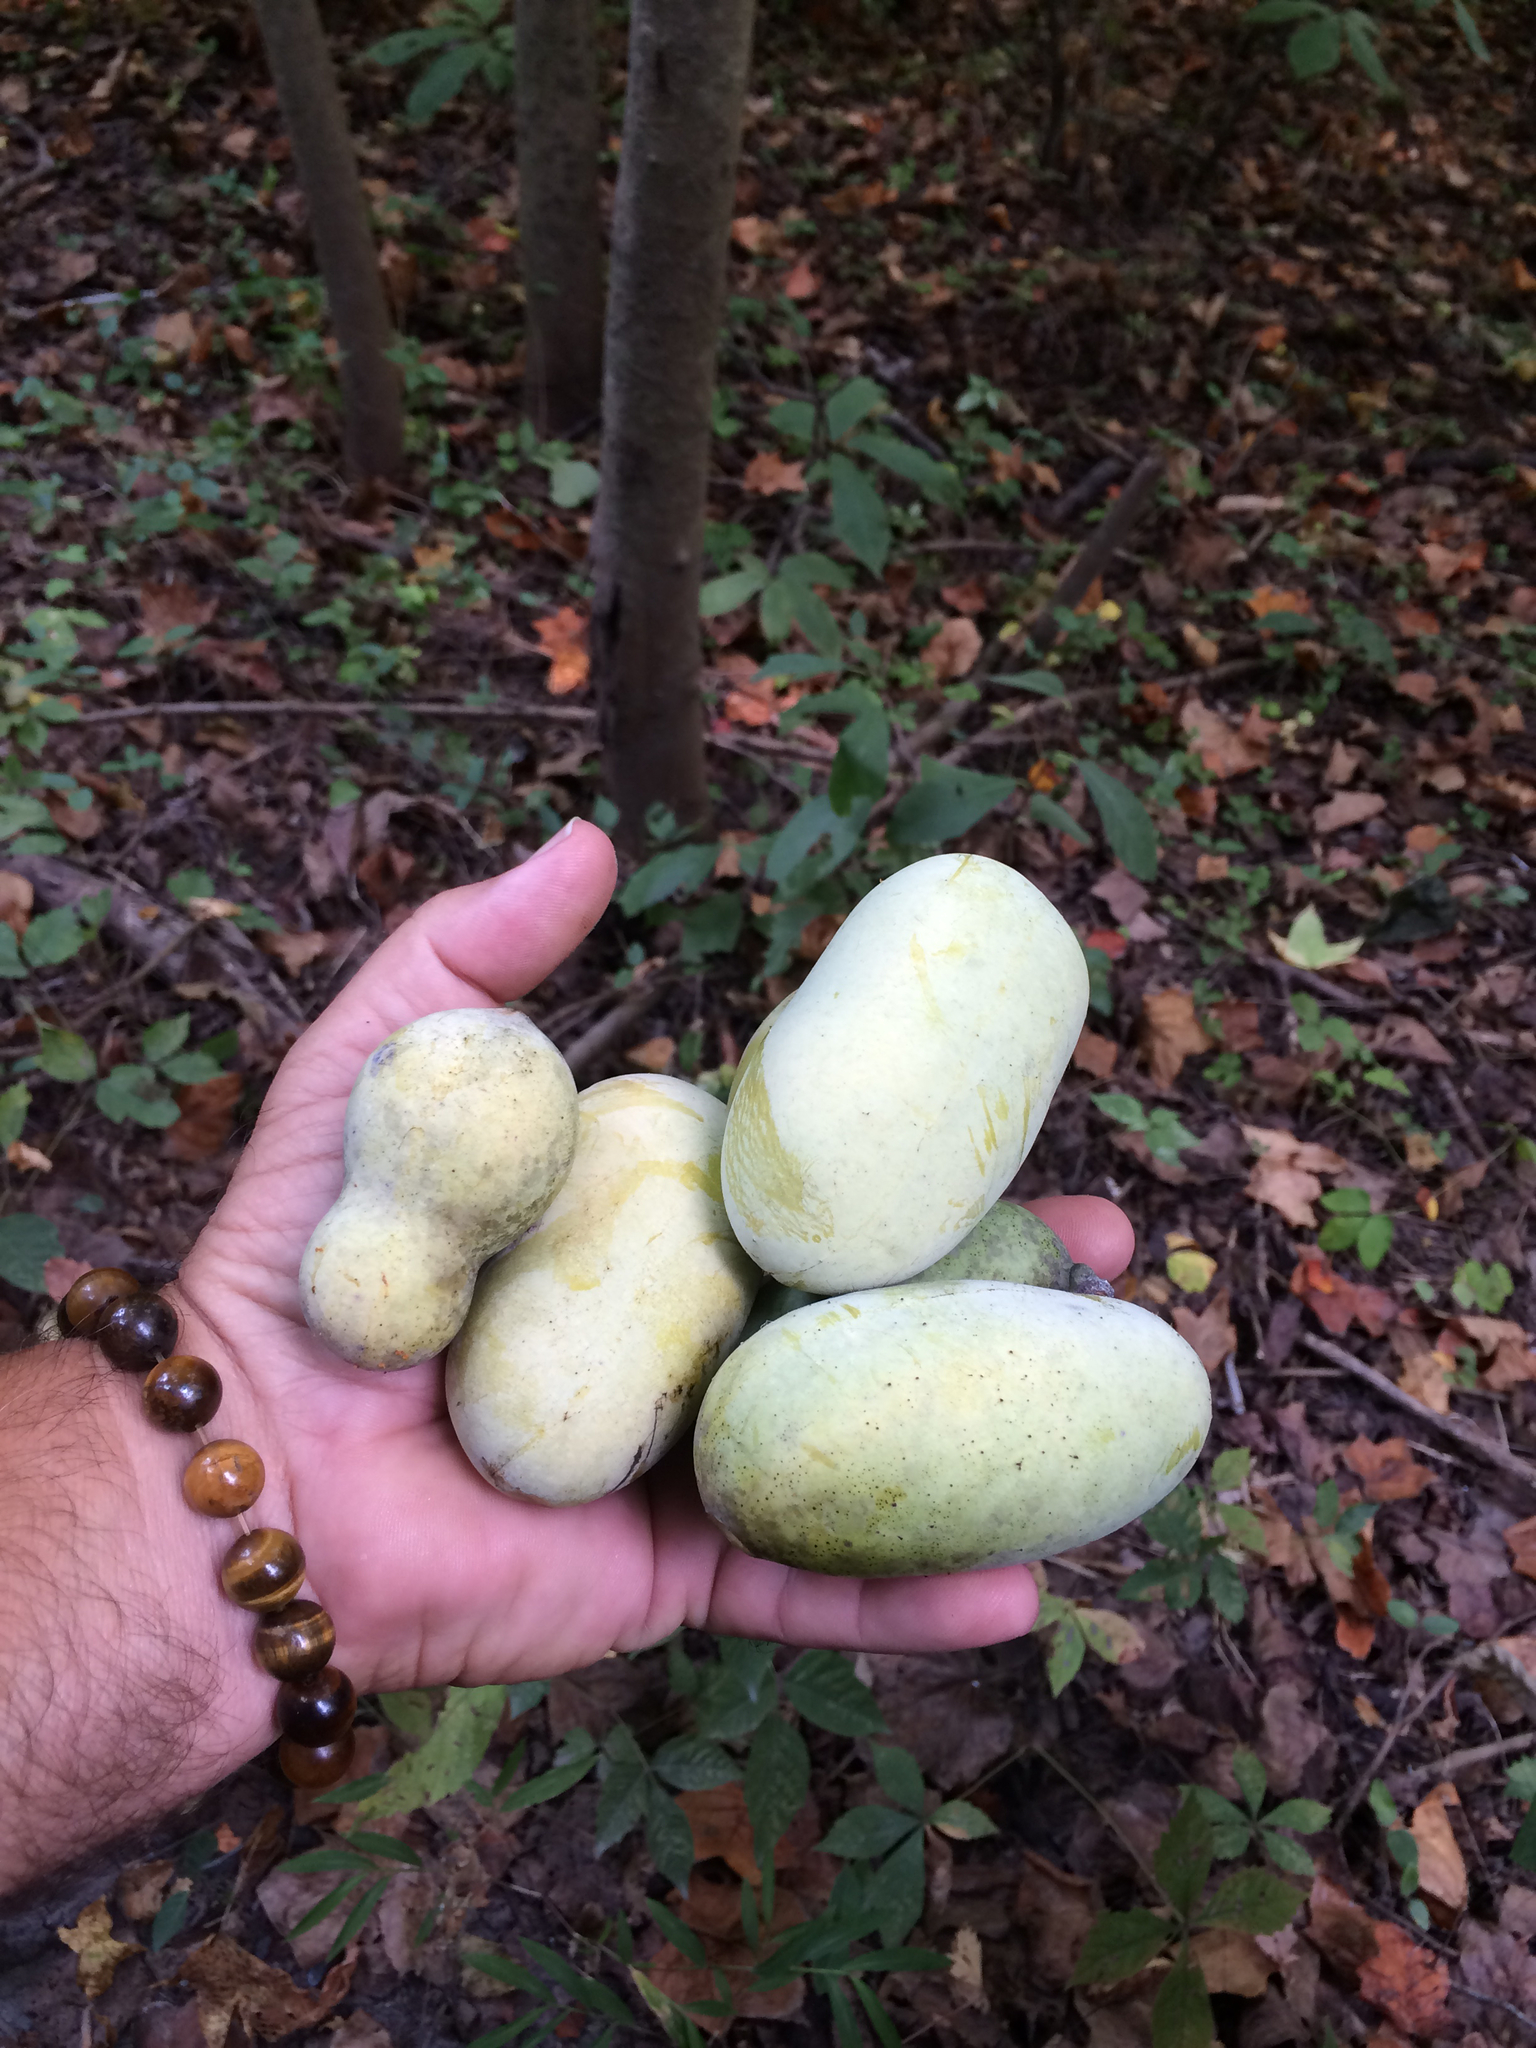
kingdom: Plantae
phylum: Tracheophyta
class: Magnoliopsida
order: Magnoliales
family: Annonaceae
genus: Asimina
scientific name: Asimina triloba
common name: Dog-banana
